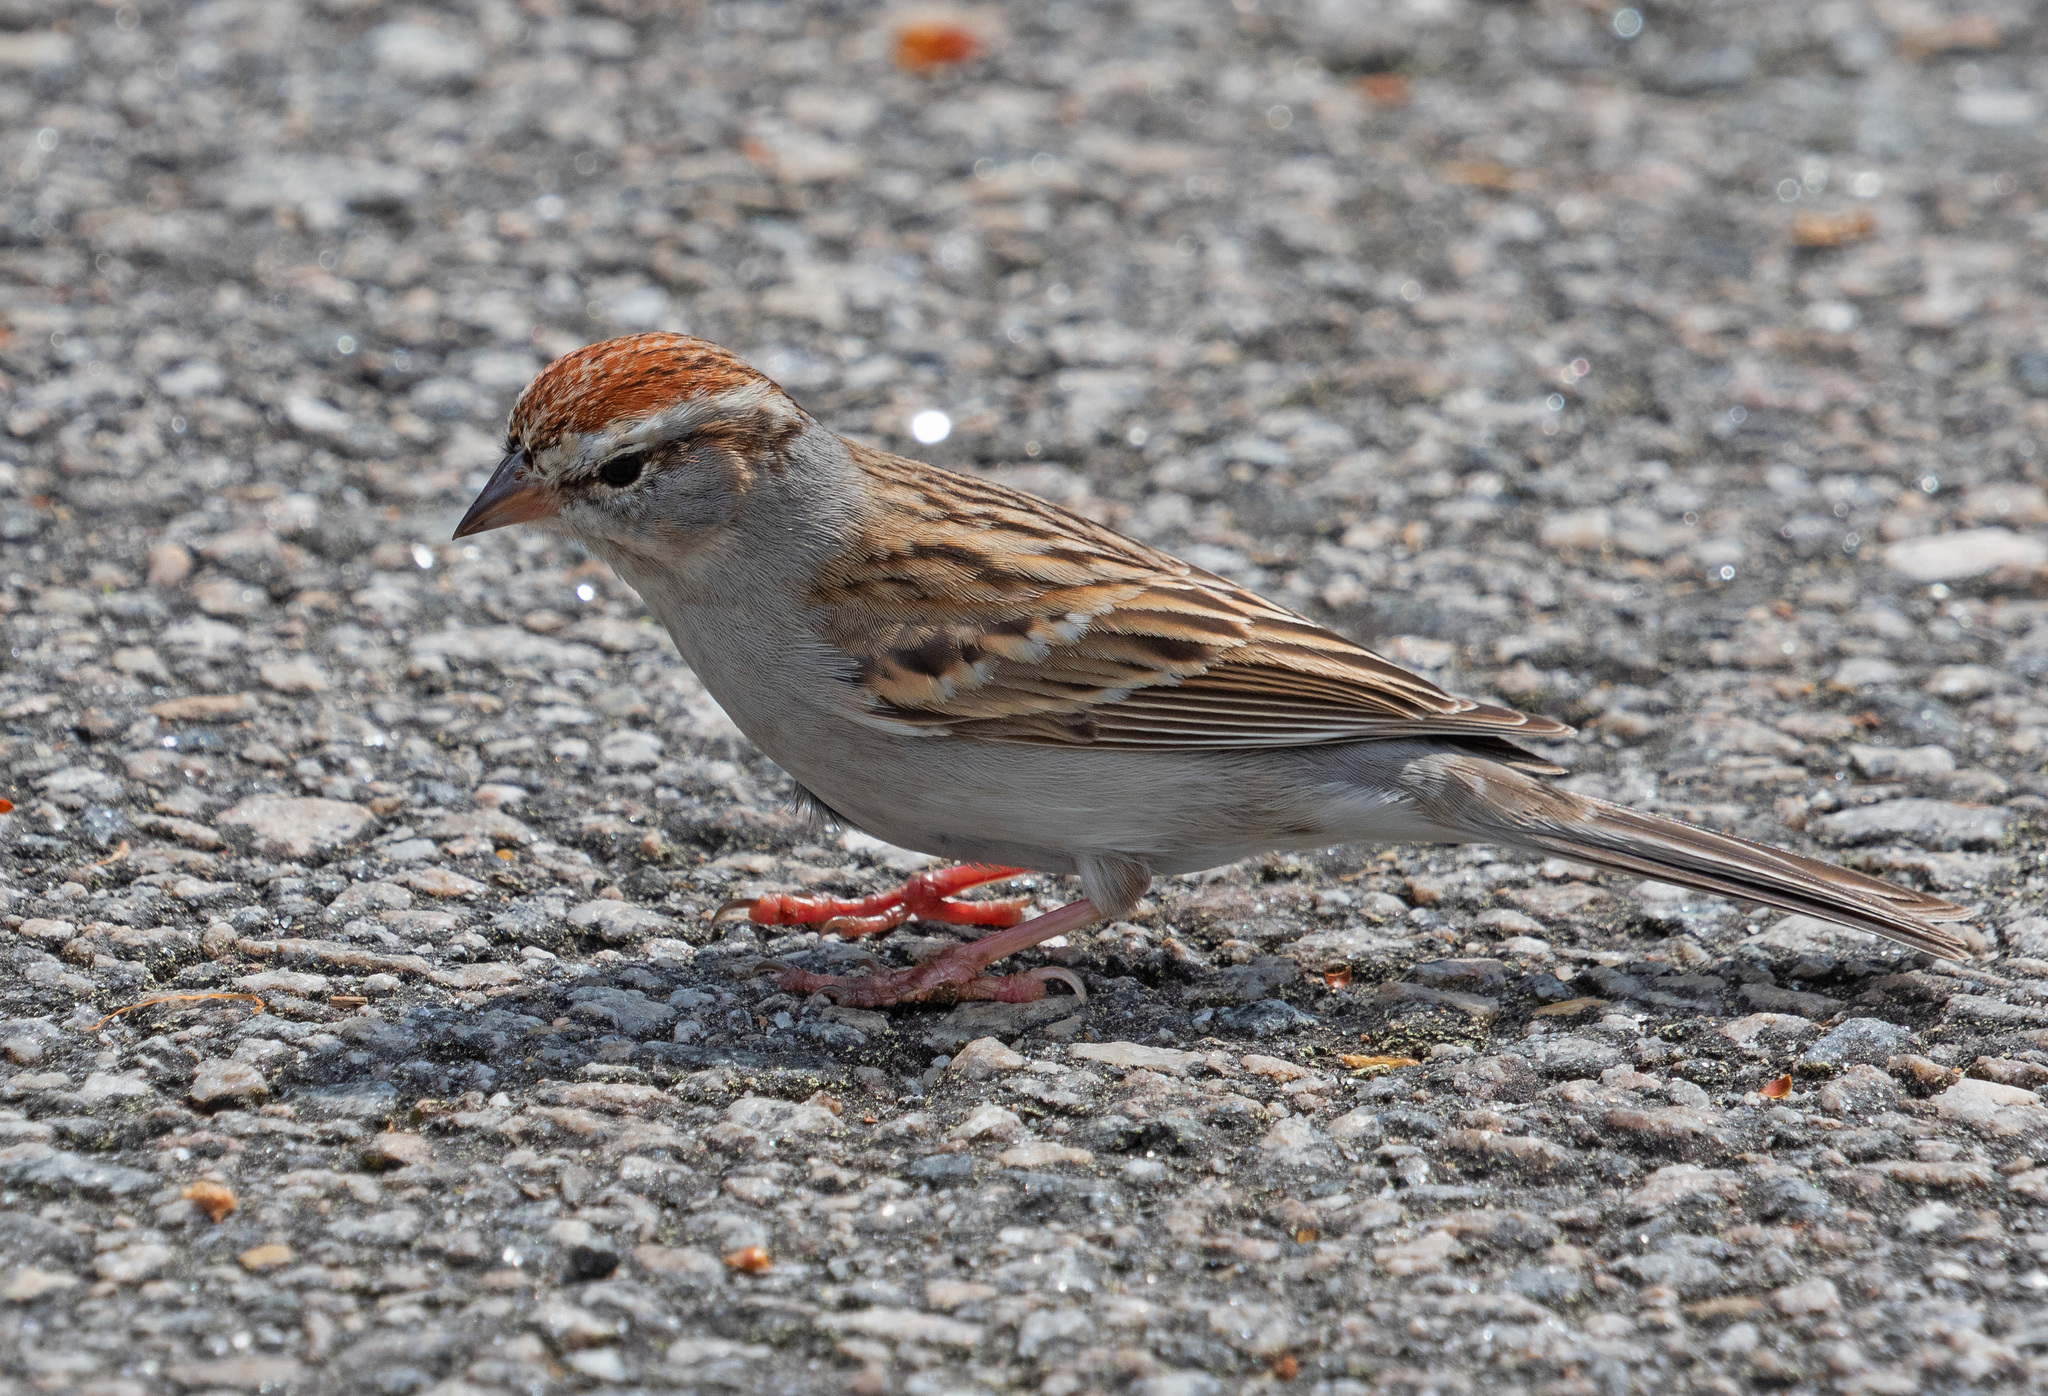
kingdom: Animalia
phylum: Chordata
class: Aves
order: Passeriformes
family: Passerellidae
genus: Spizella
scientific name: Spizella passerina
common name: Chipping sparrow
